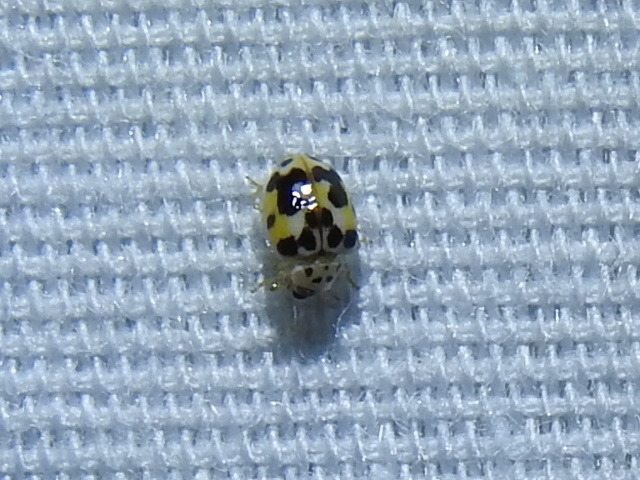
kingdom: Animalia
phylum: Arthropoda
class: Insecta
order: Coleoptera
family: Coccinellidae
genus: Psyllobora
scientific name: Psyllobora vigintimaculata
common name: Ladybird beetle
